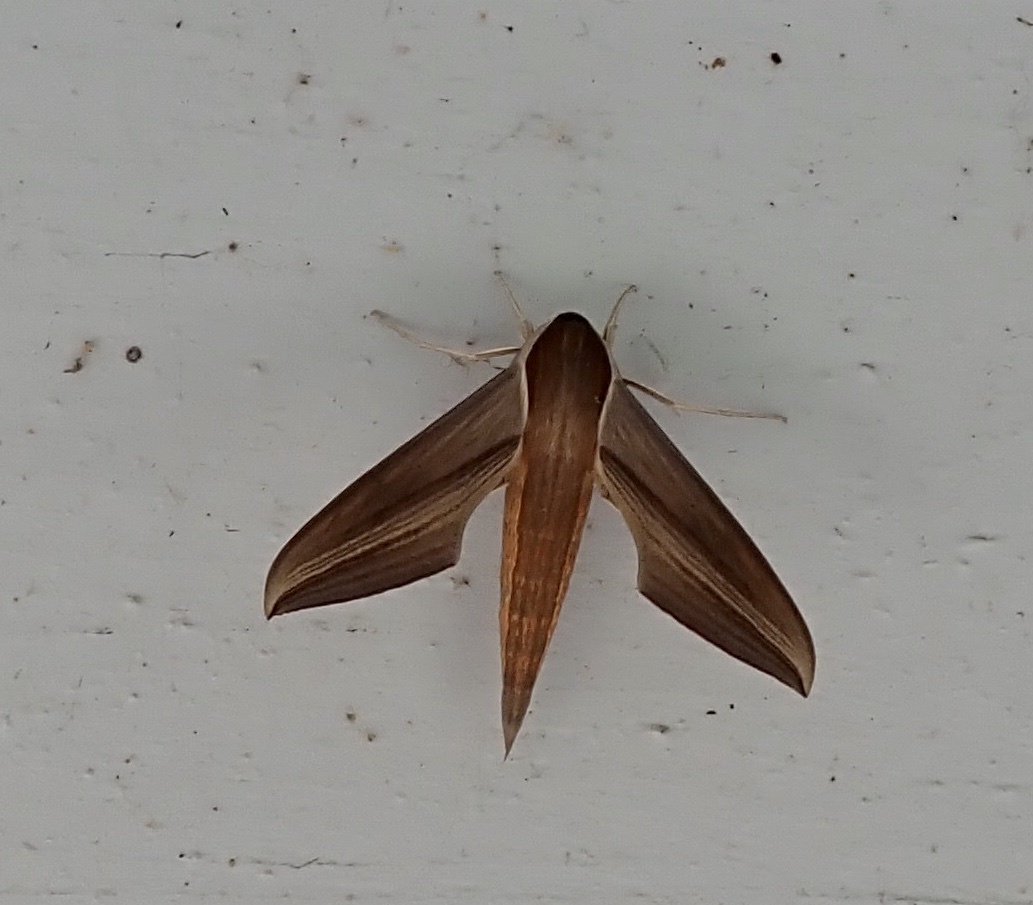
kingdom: Animalia
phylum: Arthropoda
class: Insecta
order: Lepidoptera
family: Sphingidae
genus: Xylophanes
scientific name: Xylophanes tersa
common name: Tersa sphinx
